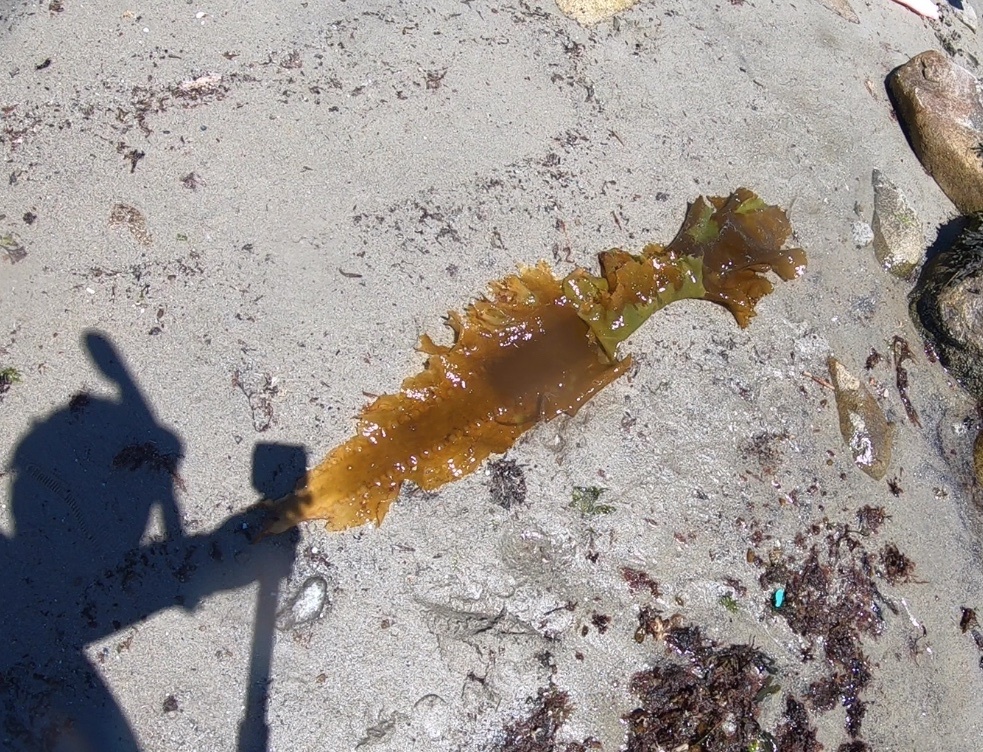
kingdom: Chromista
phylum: Ochrophyta
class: Phaeophyceae
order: Laminariales
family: Laminariaceae
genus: Saccharina
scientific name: Saccharina latissima
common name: Poor man's weather glass
